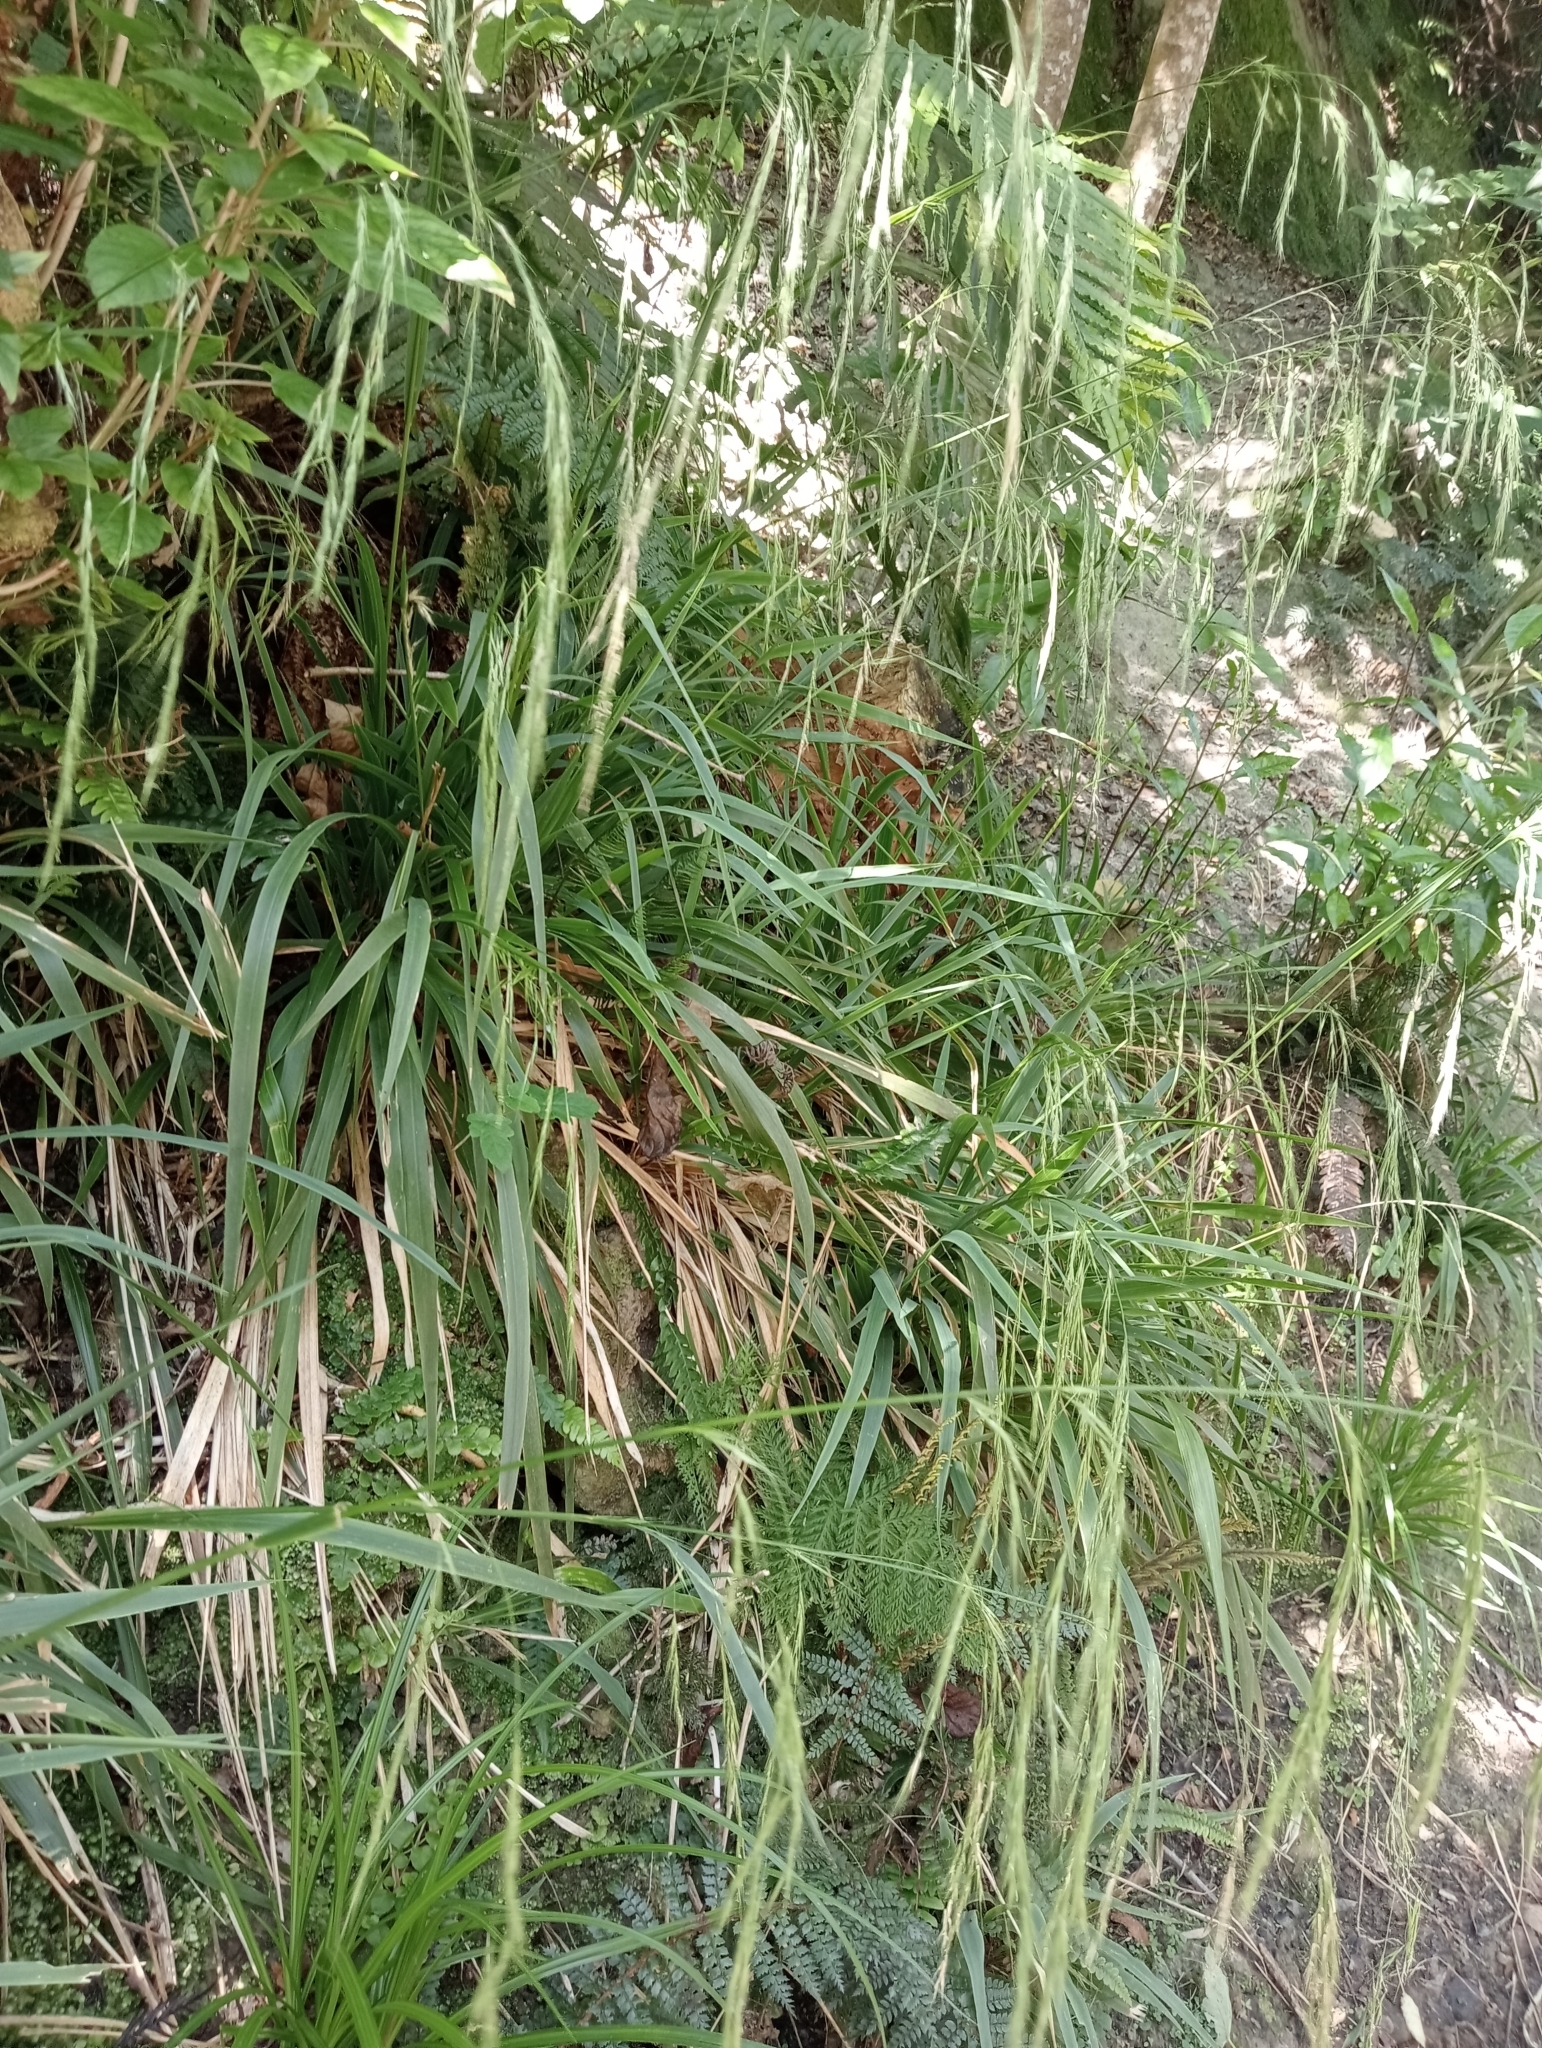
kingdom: Plantae
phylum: Tracheophyta
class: Liliopsida
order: Poales
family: Poaceae
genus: Ehrharta
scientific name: Ehrharta diplax
